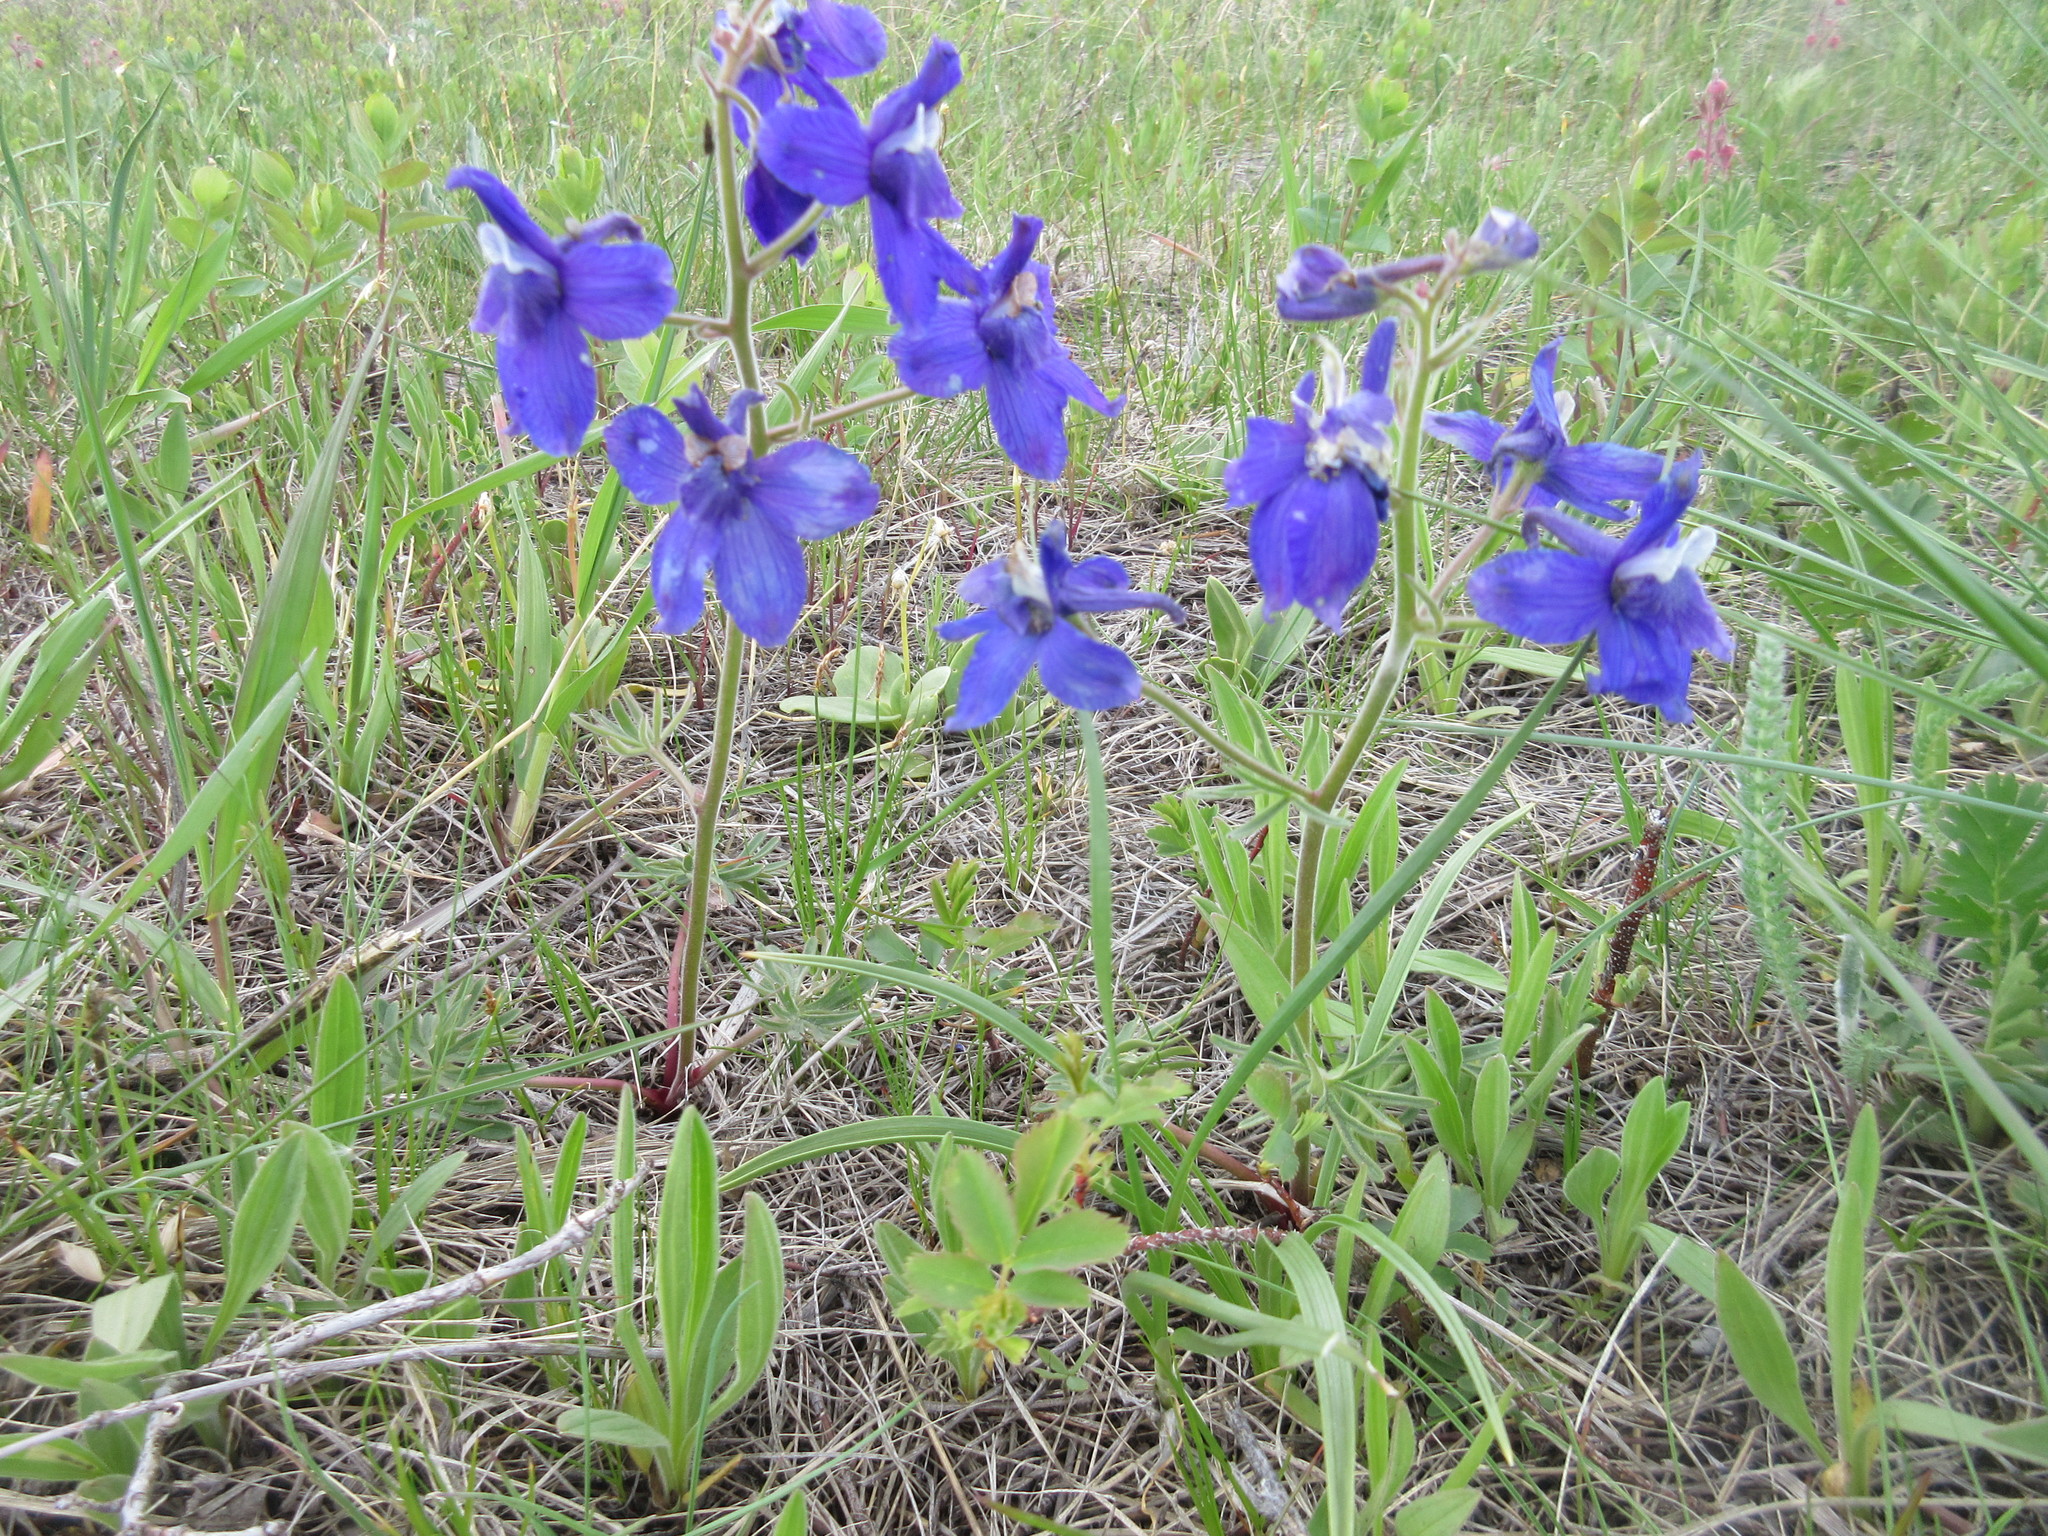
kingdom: Plantae
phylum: Tracheophyta
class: Magnoliopsida
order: Ranunculales
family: Ranunculaceae
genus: Delphinium
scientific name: Delphinium bicolor
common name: Low larkspur
